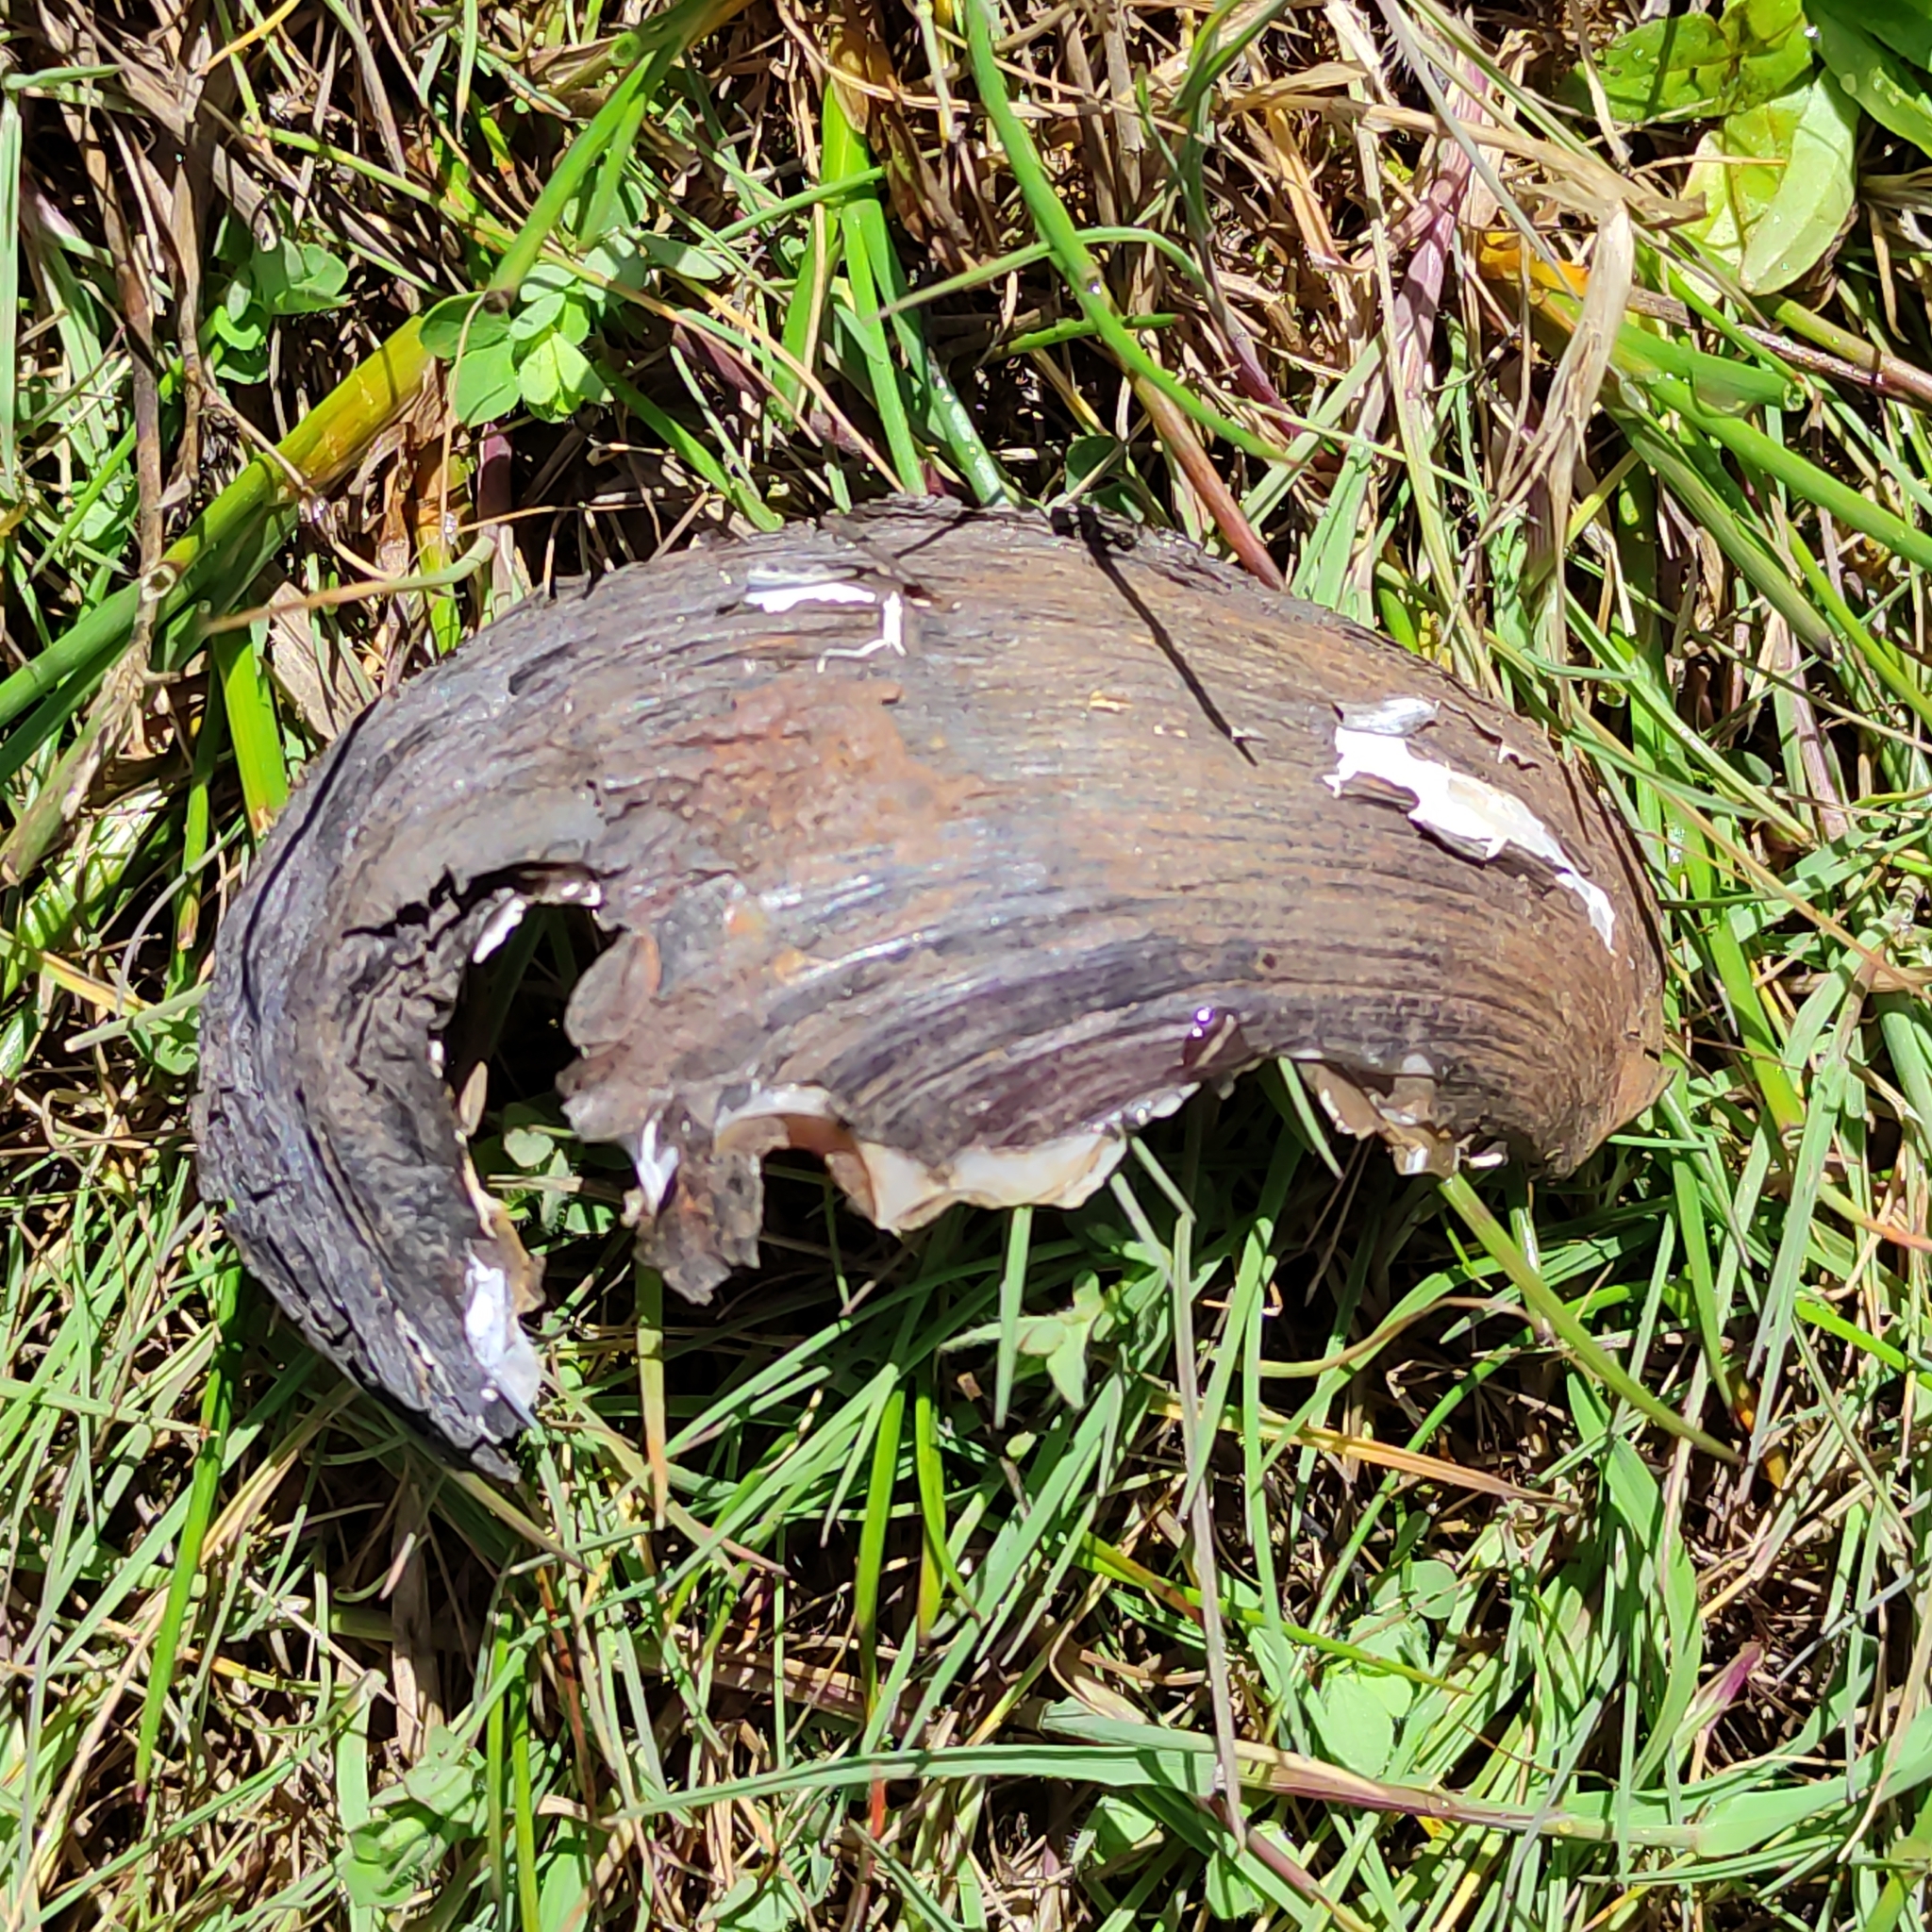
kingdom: Animalia
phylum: Mollusca
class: Bivalvia
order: Unionida
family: Hyriidae
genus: Echyridella
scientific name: Echyridella menziesii
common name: New zealand freshwater mussel
